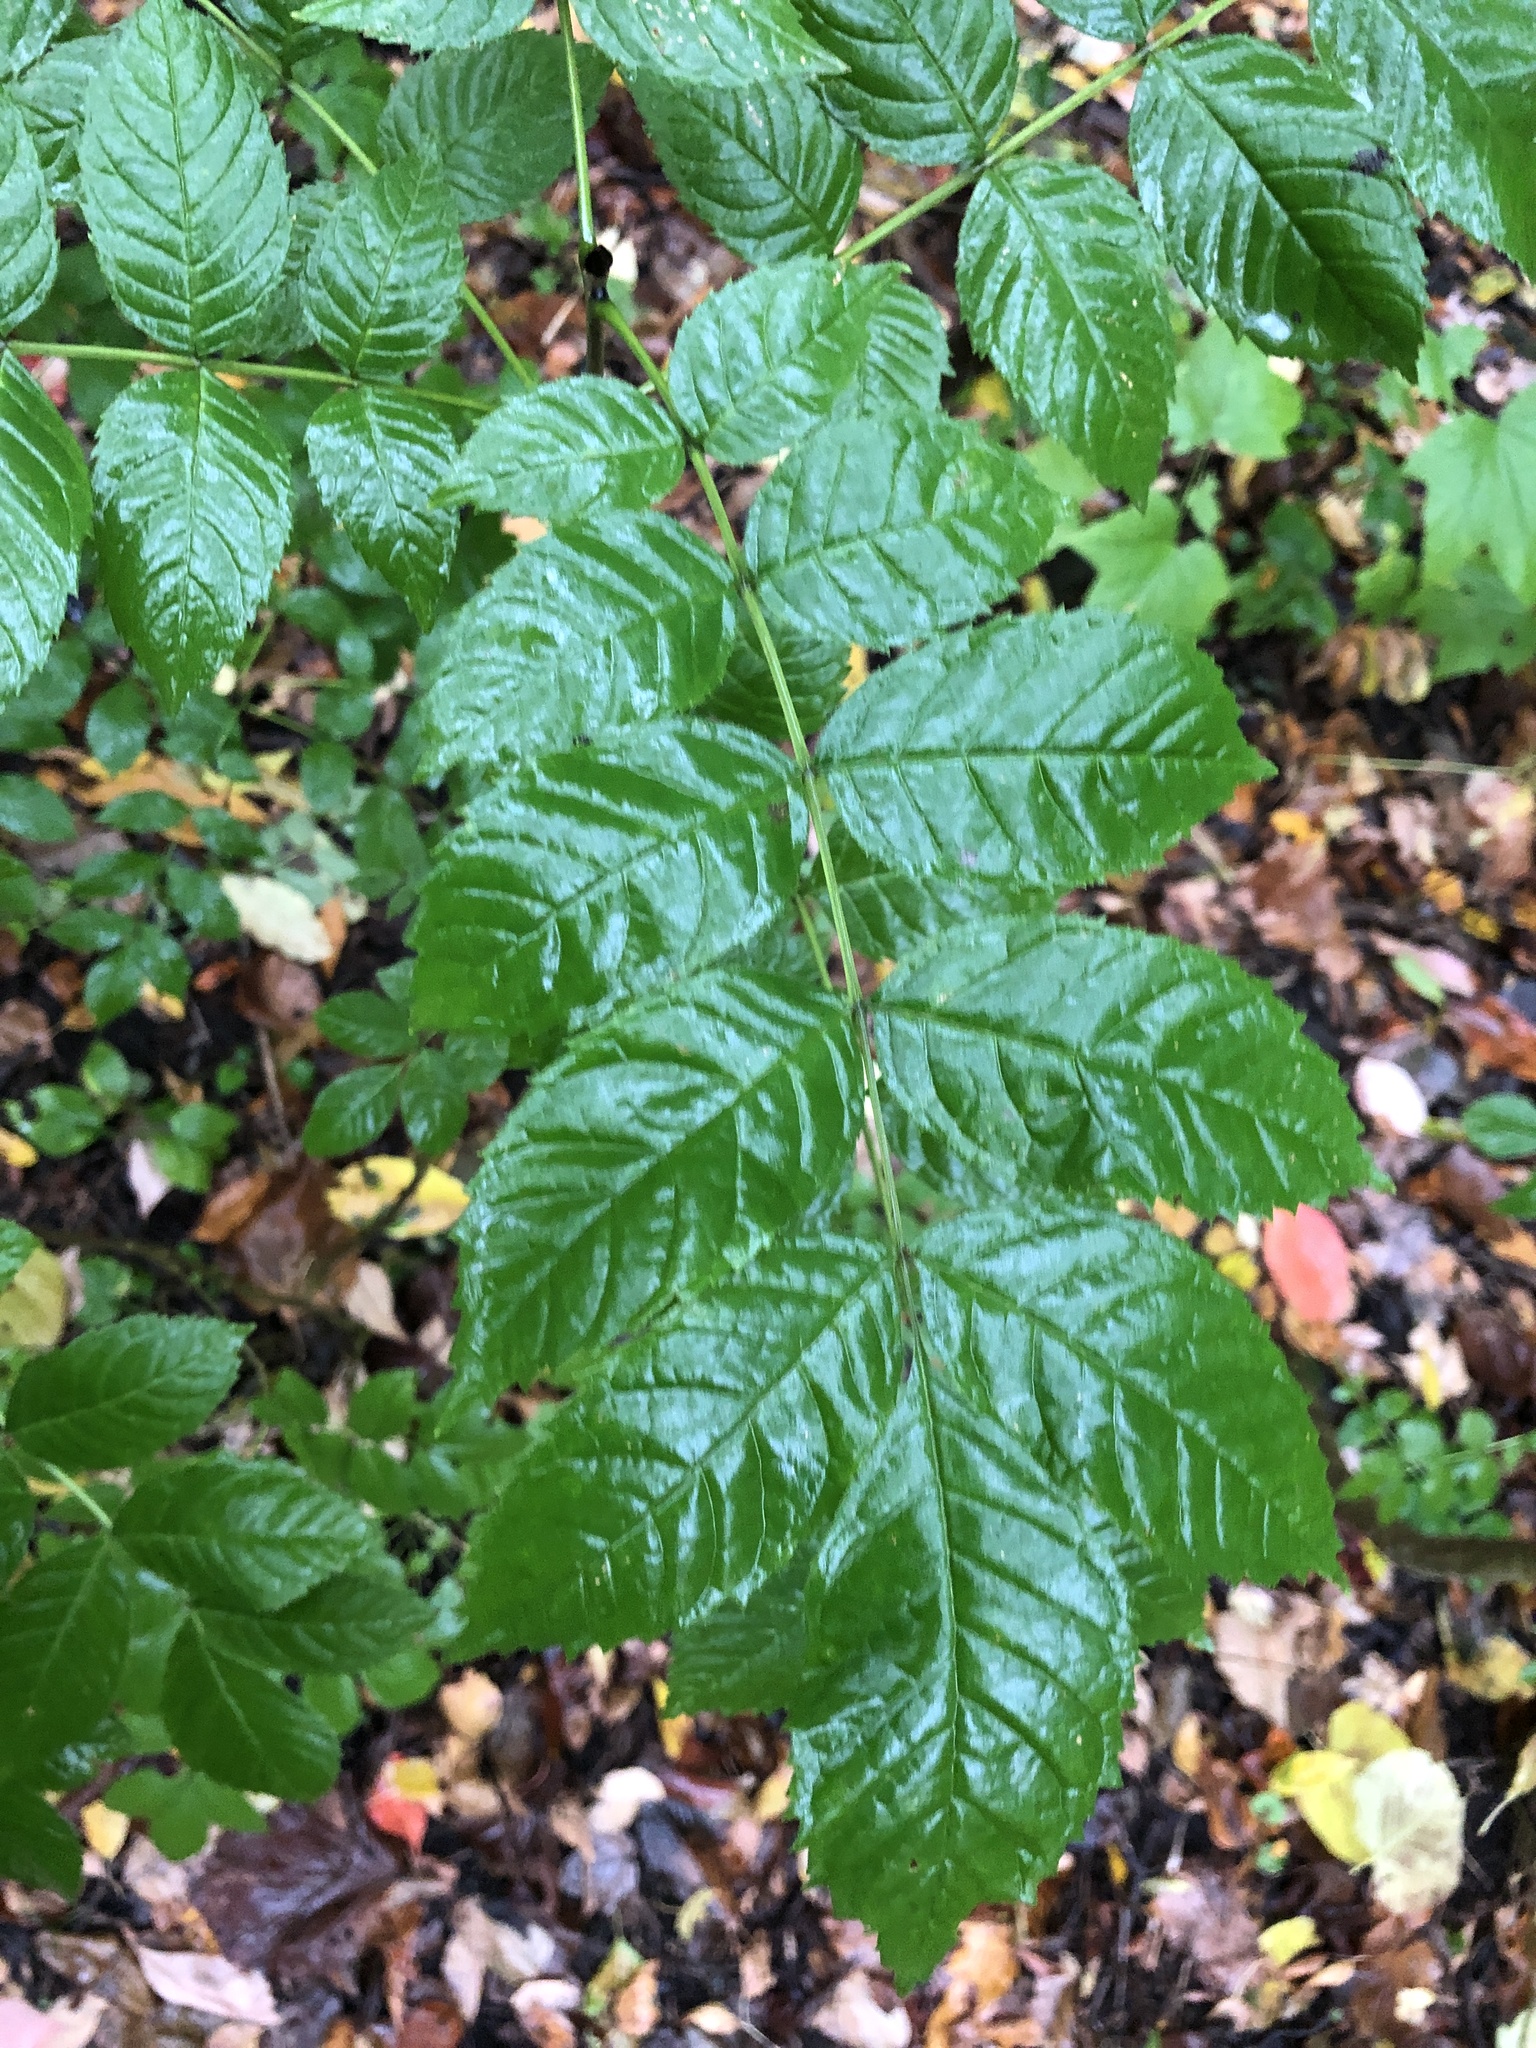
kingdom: Plantae
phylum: Tracheophyta
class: Magnoliopsida
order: Lamiales
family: Oleaceae
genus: Fraxinus
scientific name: Fraxinus excelsior
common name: European ash
